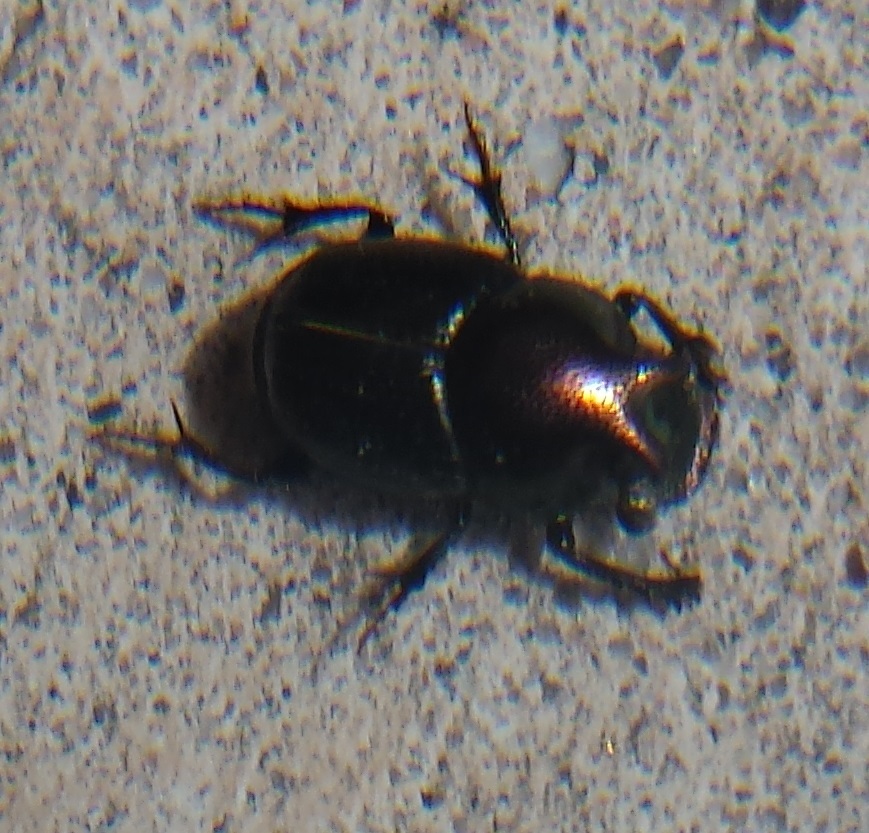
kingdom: Animalia
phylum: Arthropoda
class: Insecta
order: Coleoptera
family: Scarabaeidae
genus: Onthophagus
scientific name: Onthophagus orpheus
